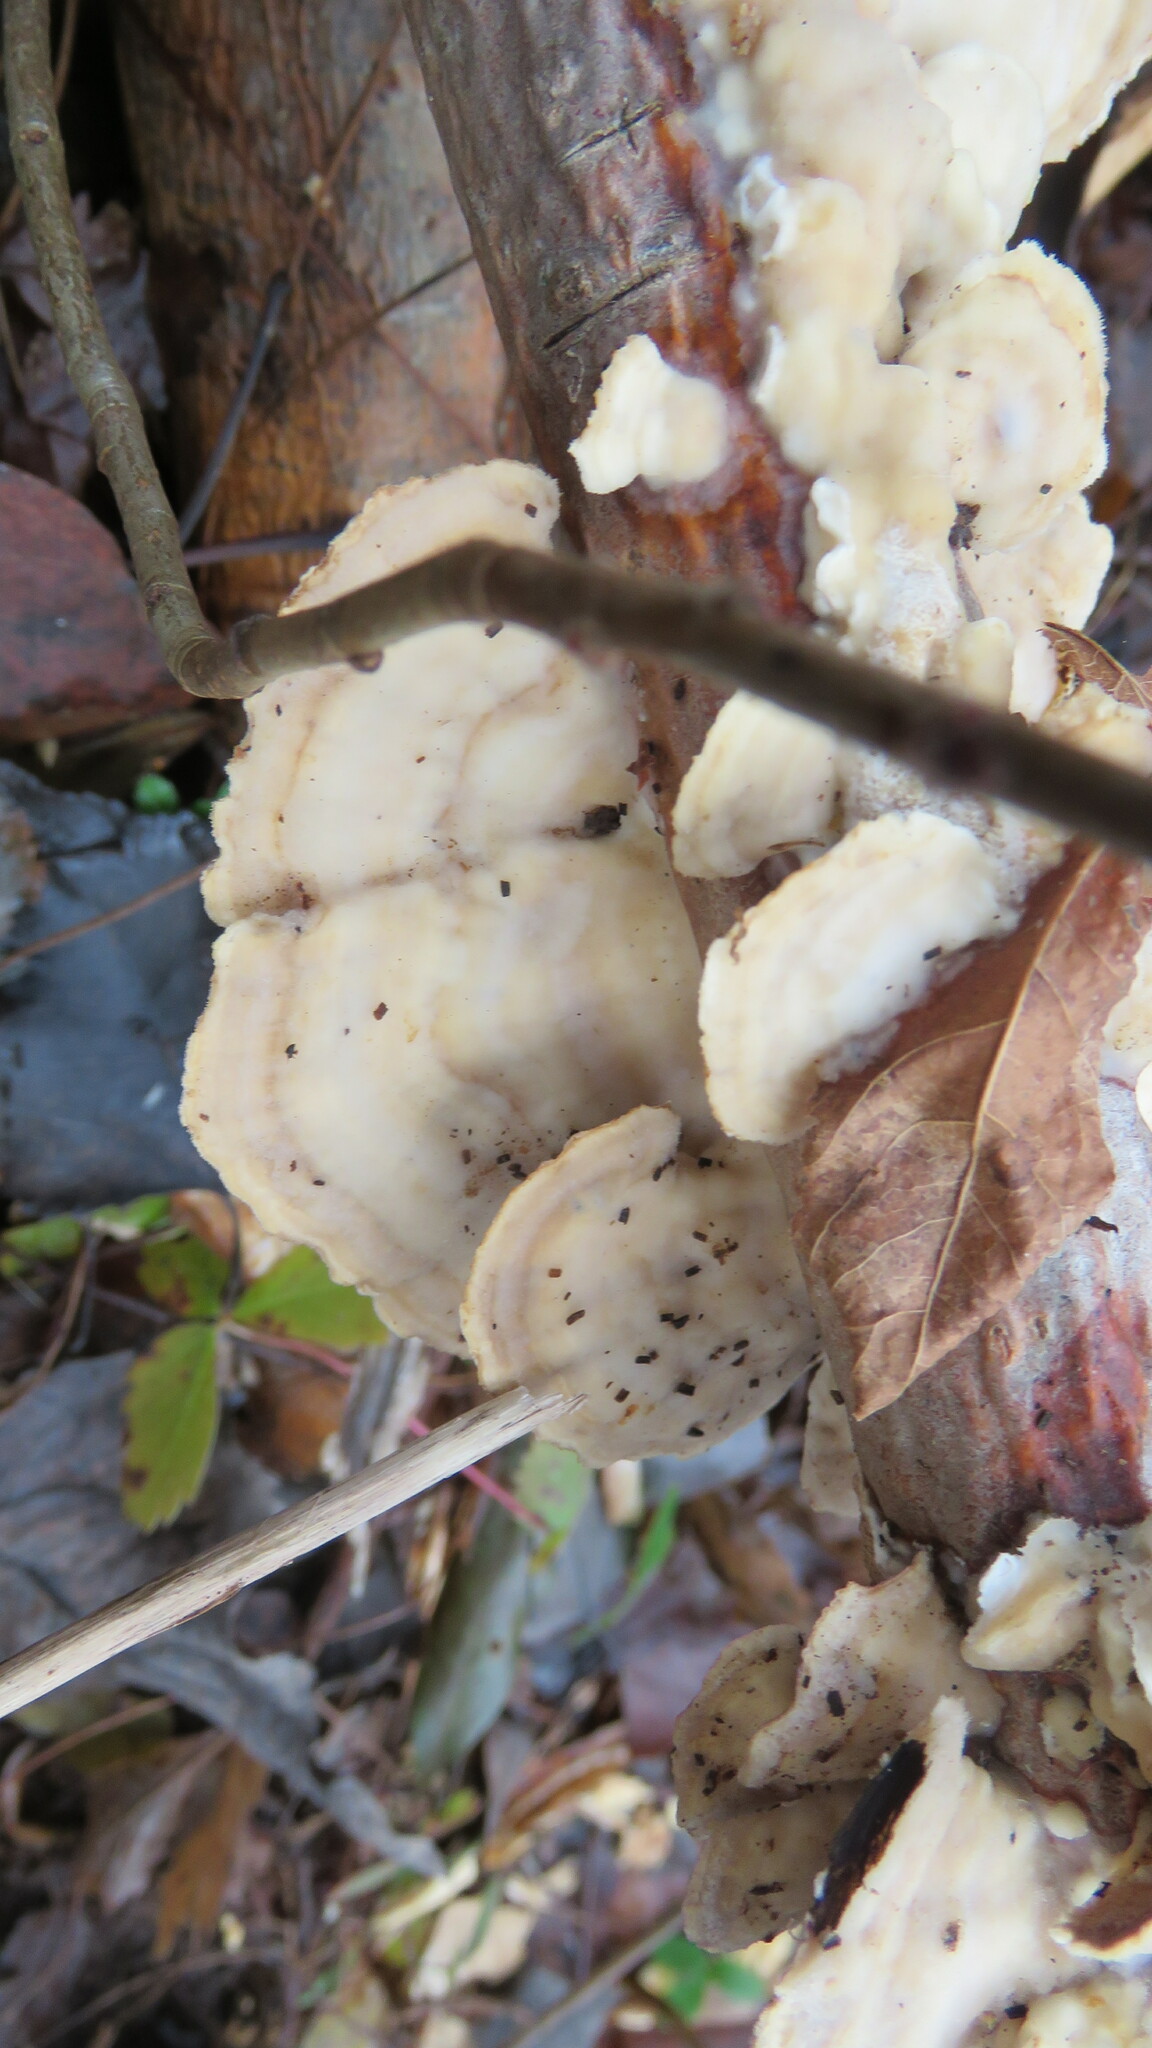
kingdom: Fungi
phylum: Basidiomycota
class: Agaricomycetes
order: Polyporales
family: Polyporaceae
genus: Trametes
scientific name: Trametes pubescens
